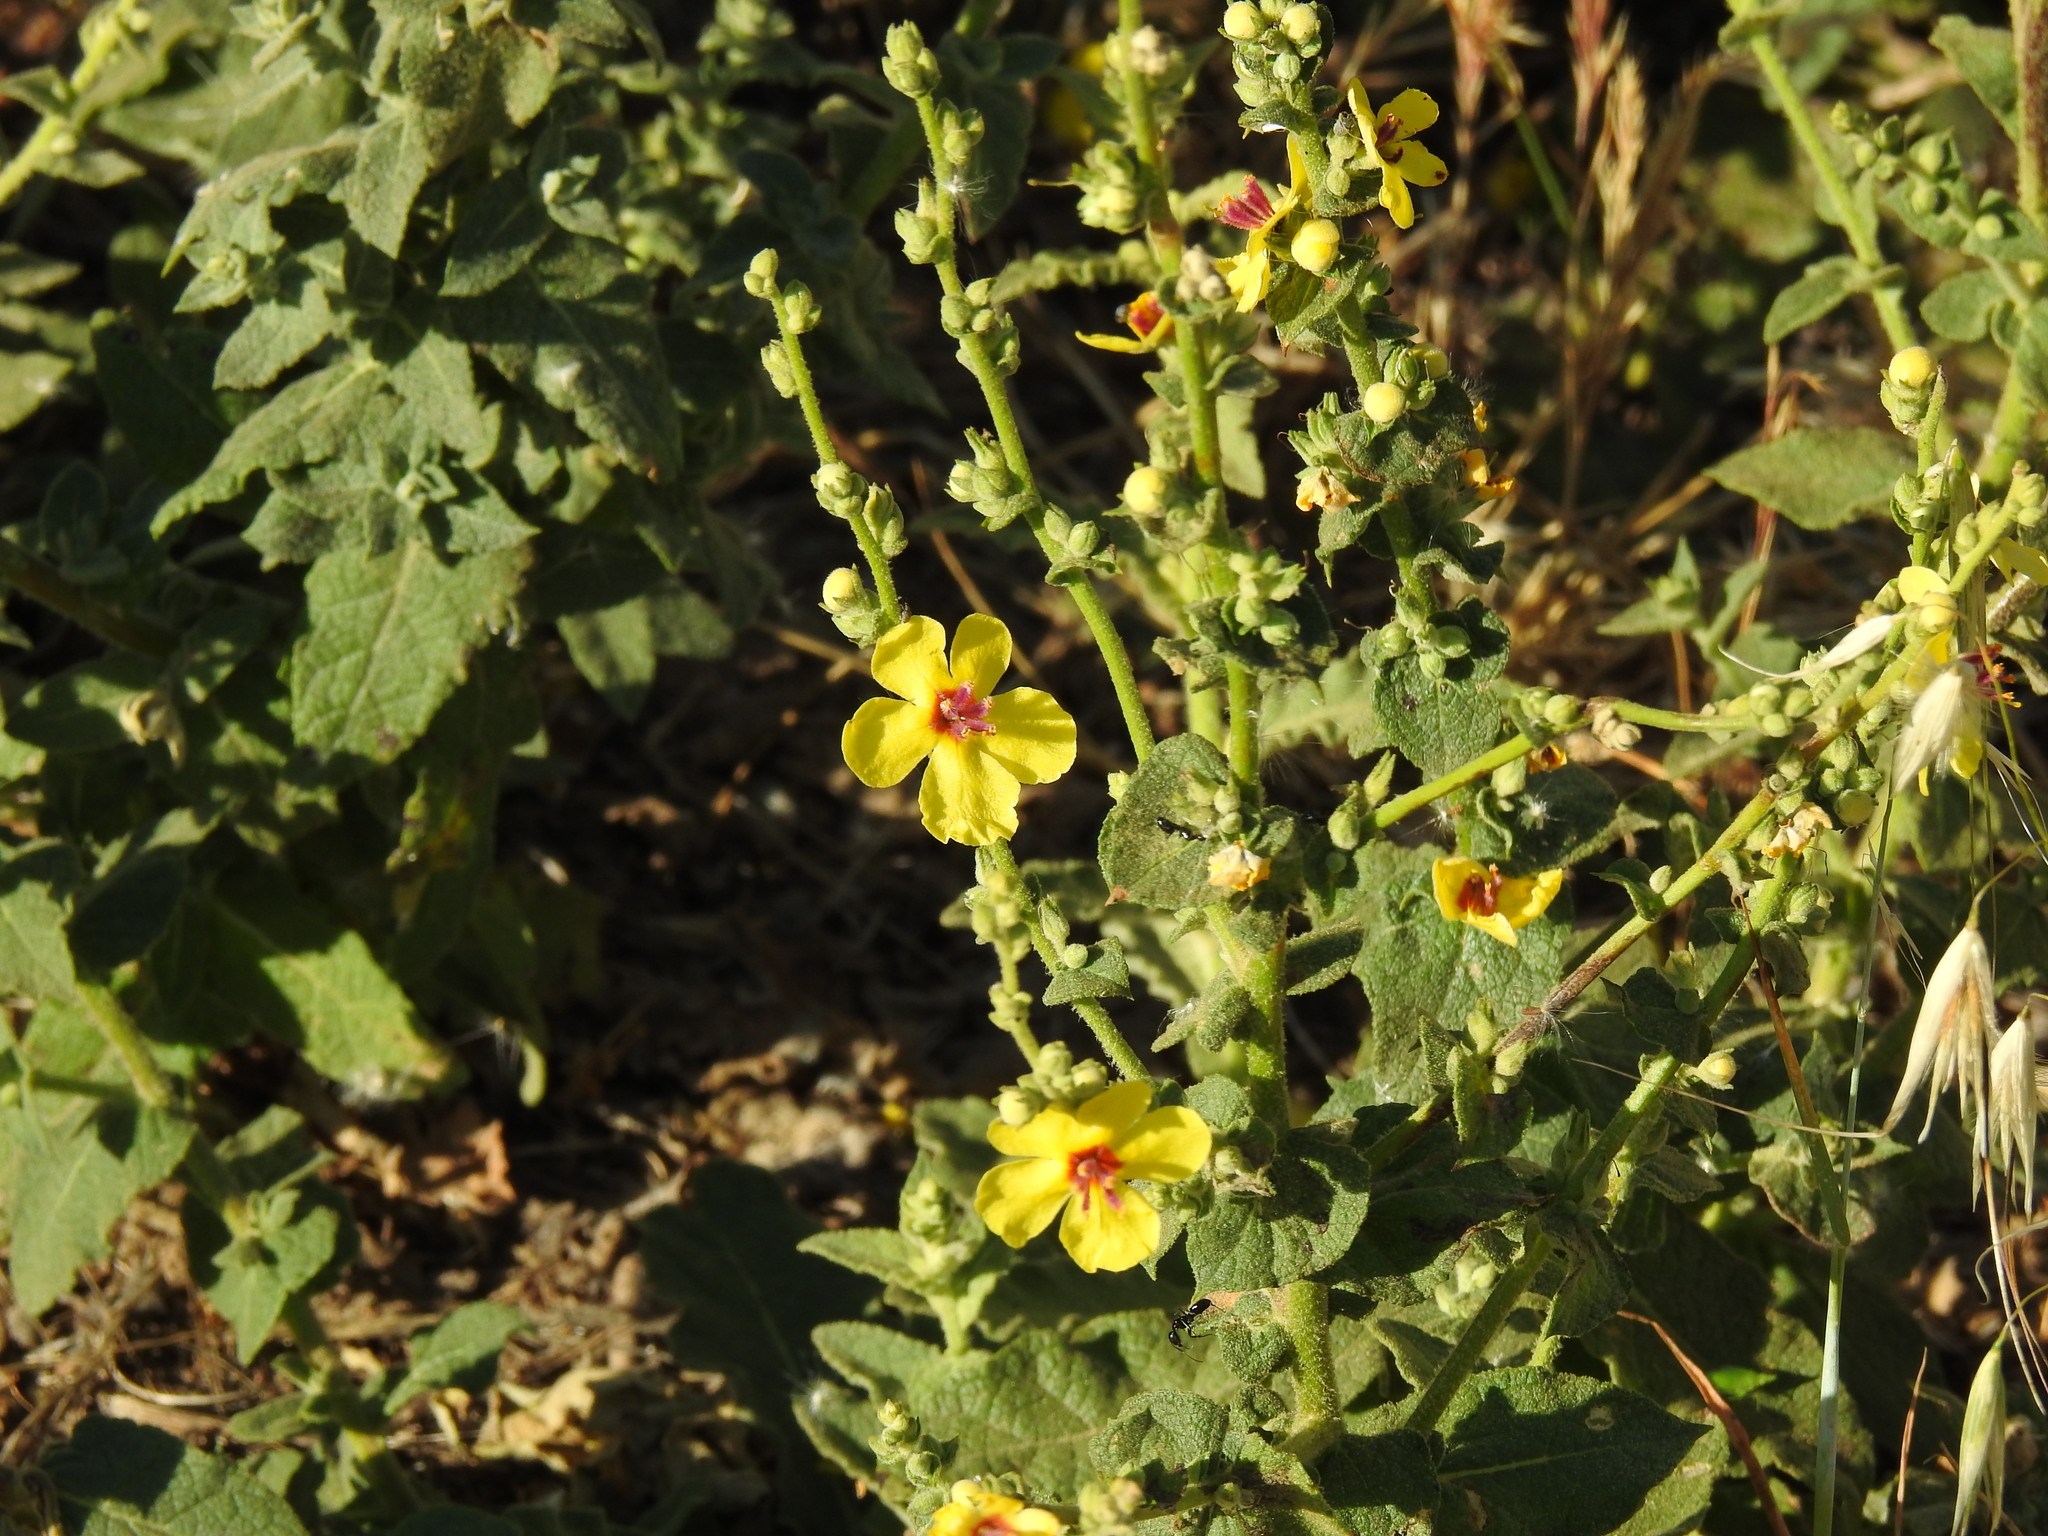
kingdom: Plantae
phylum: Tracheophyta
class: Magnoliopsida
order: Lamiales
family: Scrophulariaceae
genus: Verbascum
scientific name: Verbascum sinuatum
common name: Wavyleaf mullein
